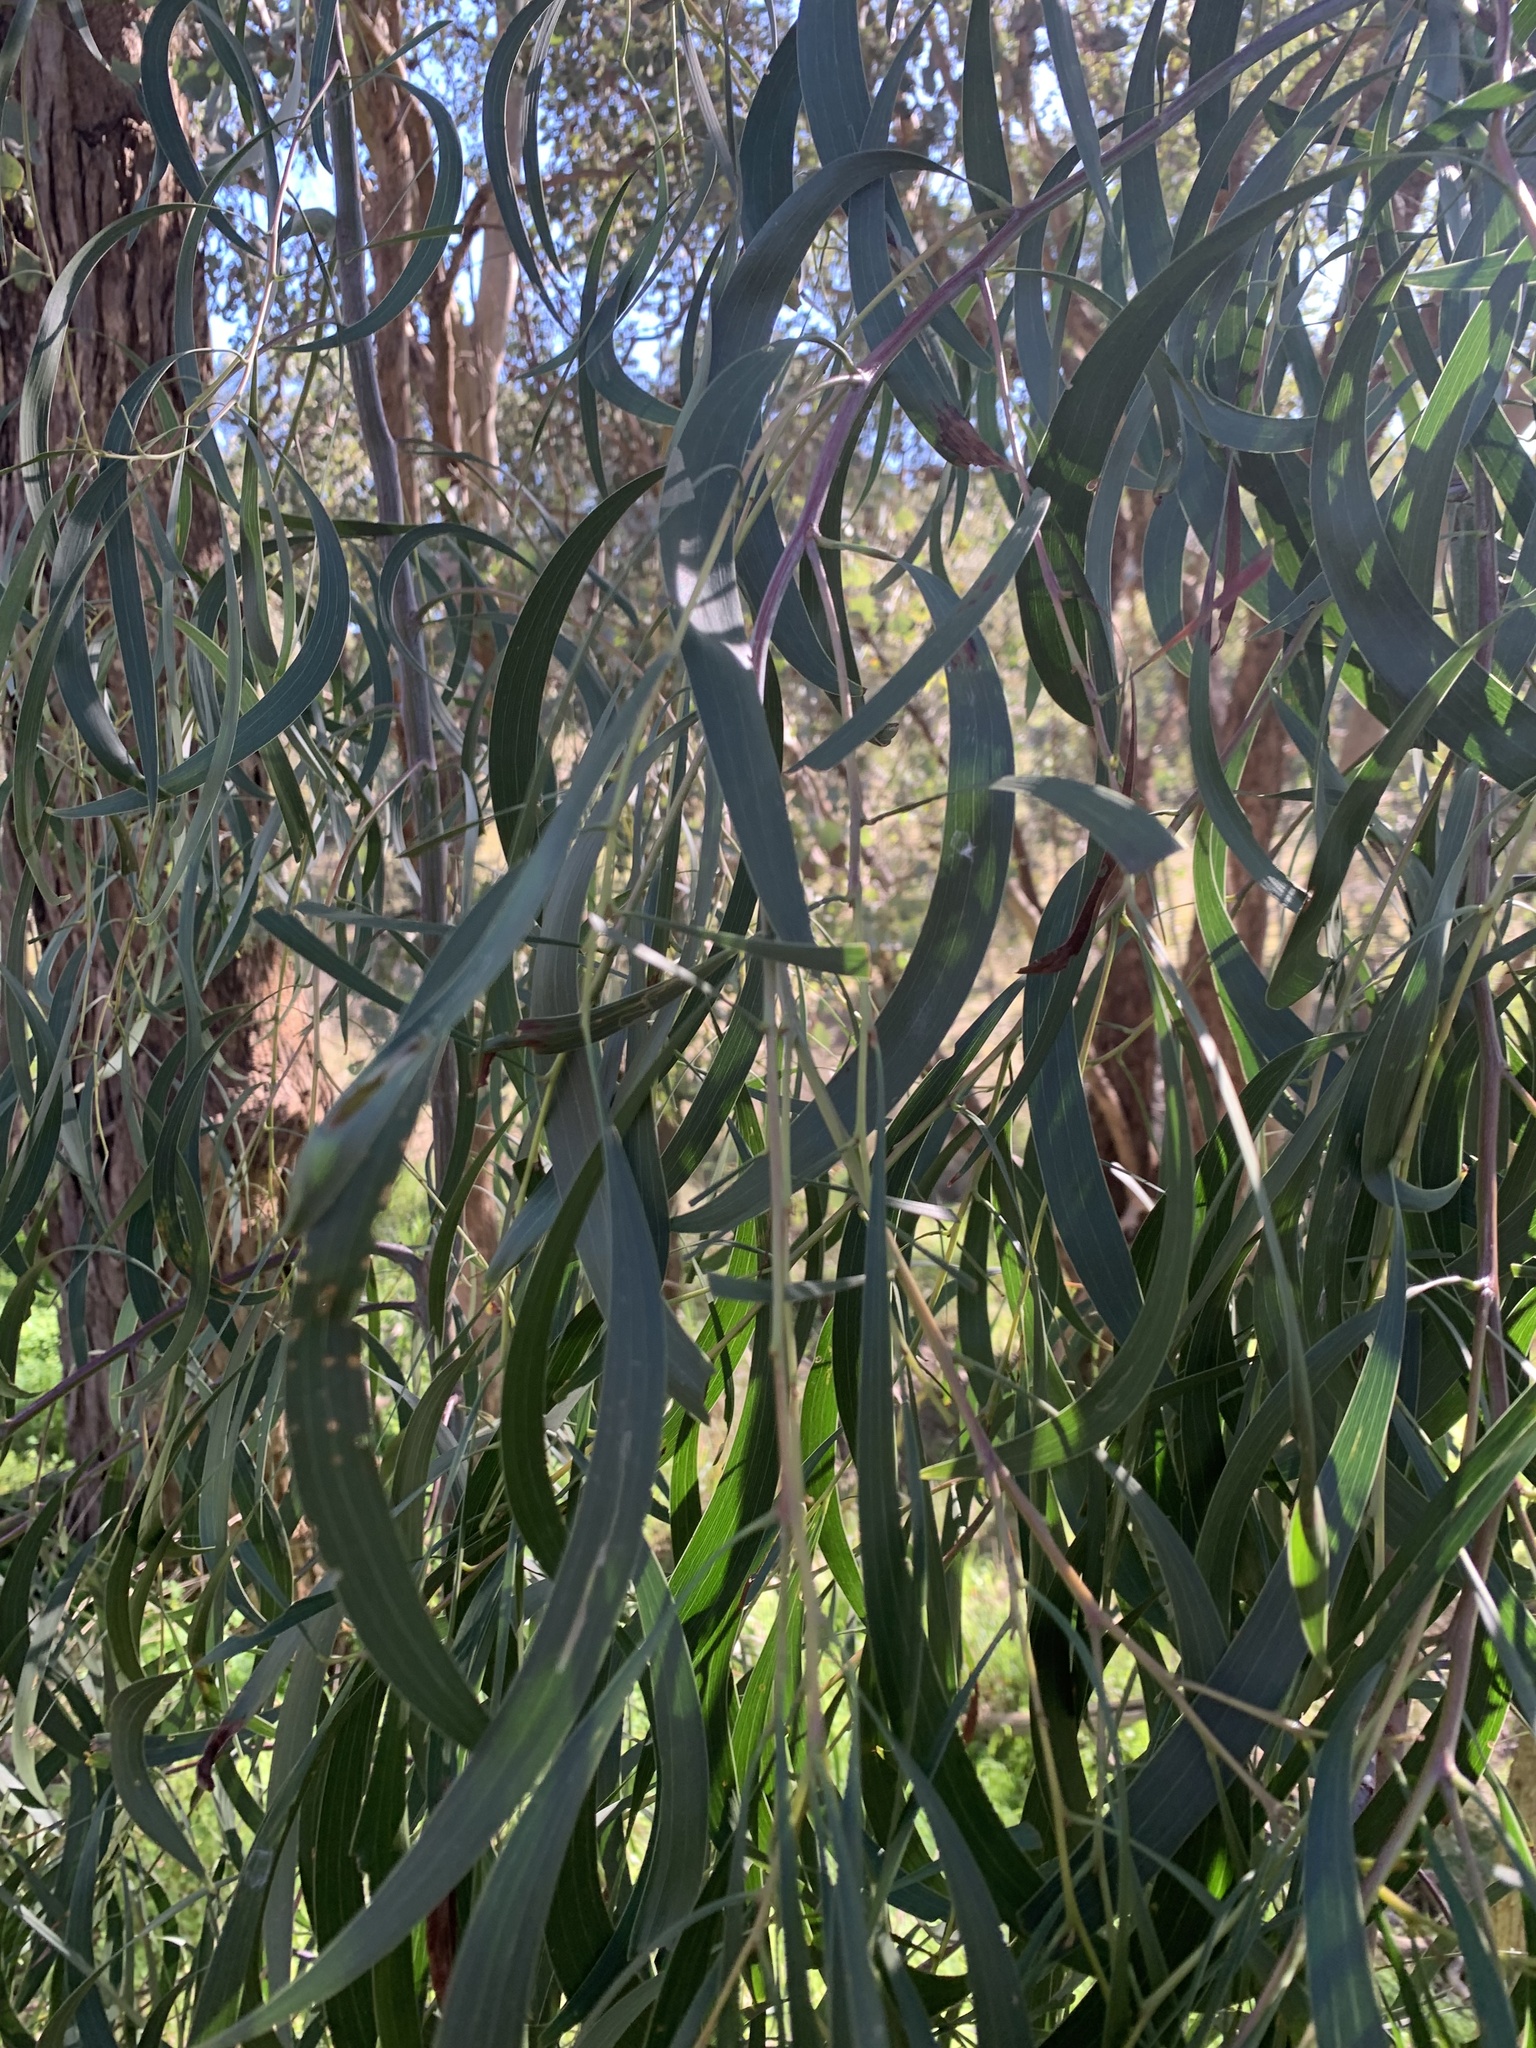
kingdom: Plantae
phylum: Tracheophyta
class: Magnoliopsida
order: Fabales
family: Fabaceae
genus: Acacia
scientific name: Acacia implexa
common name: Black wattle
